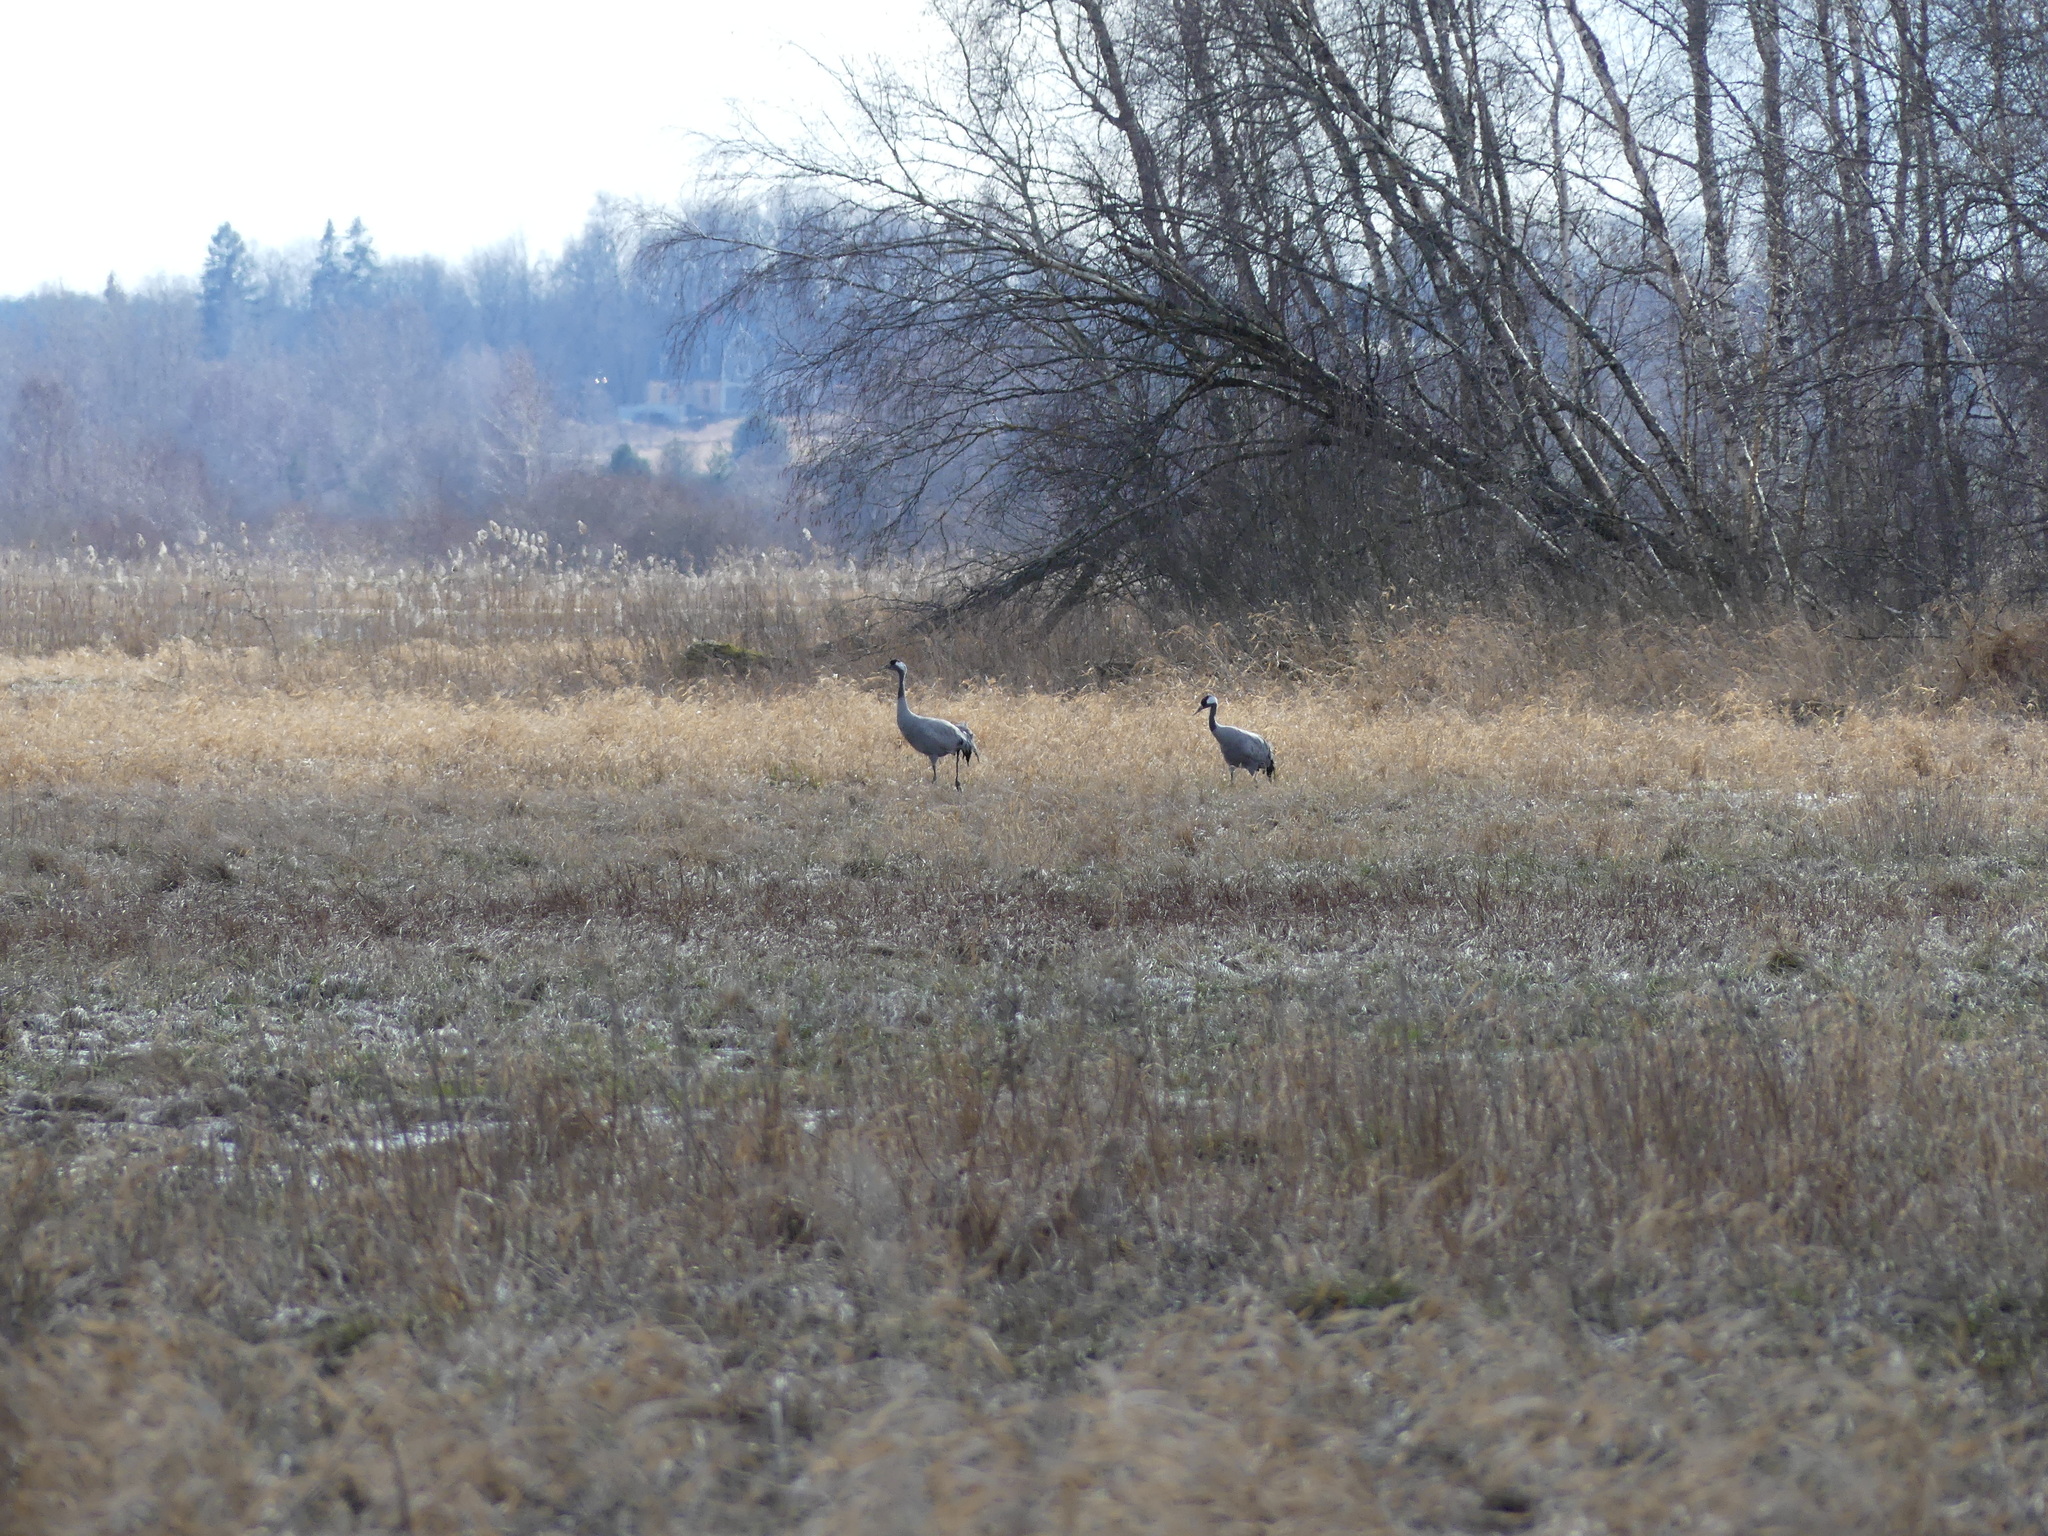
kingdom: Animalia
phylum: Chordata
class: Aves
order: Gruiformes
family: Gruidae
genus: Grus
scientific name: Grus grus
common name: Common crane
